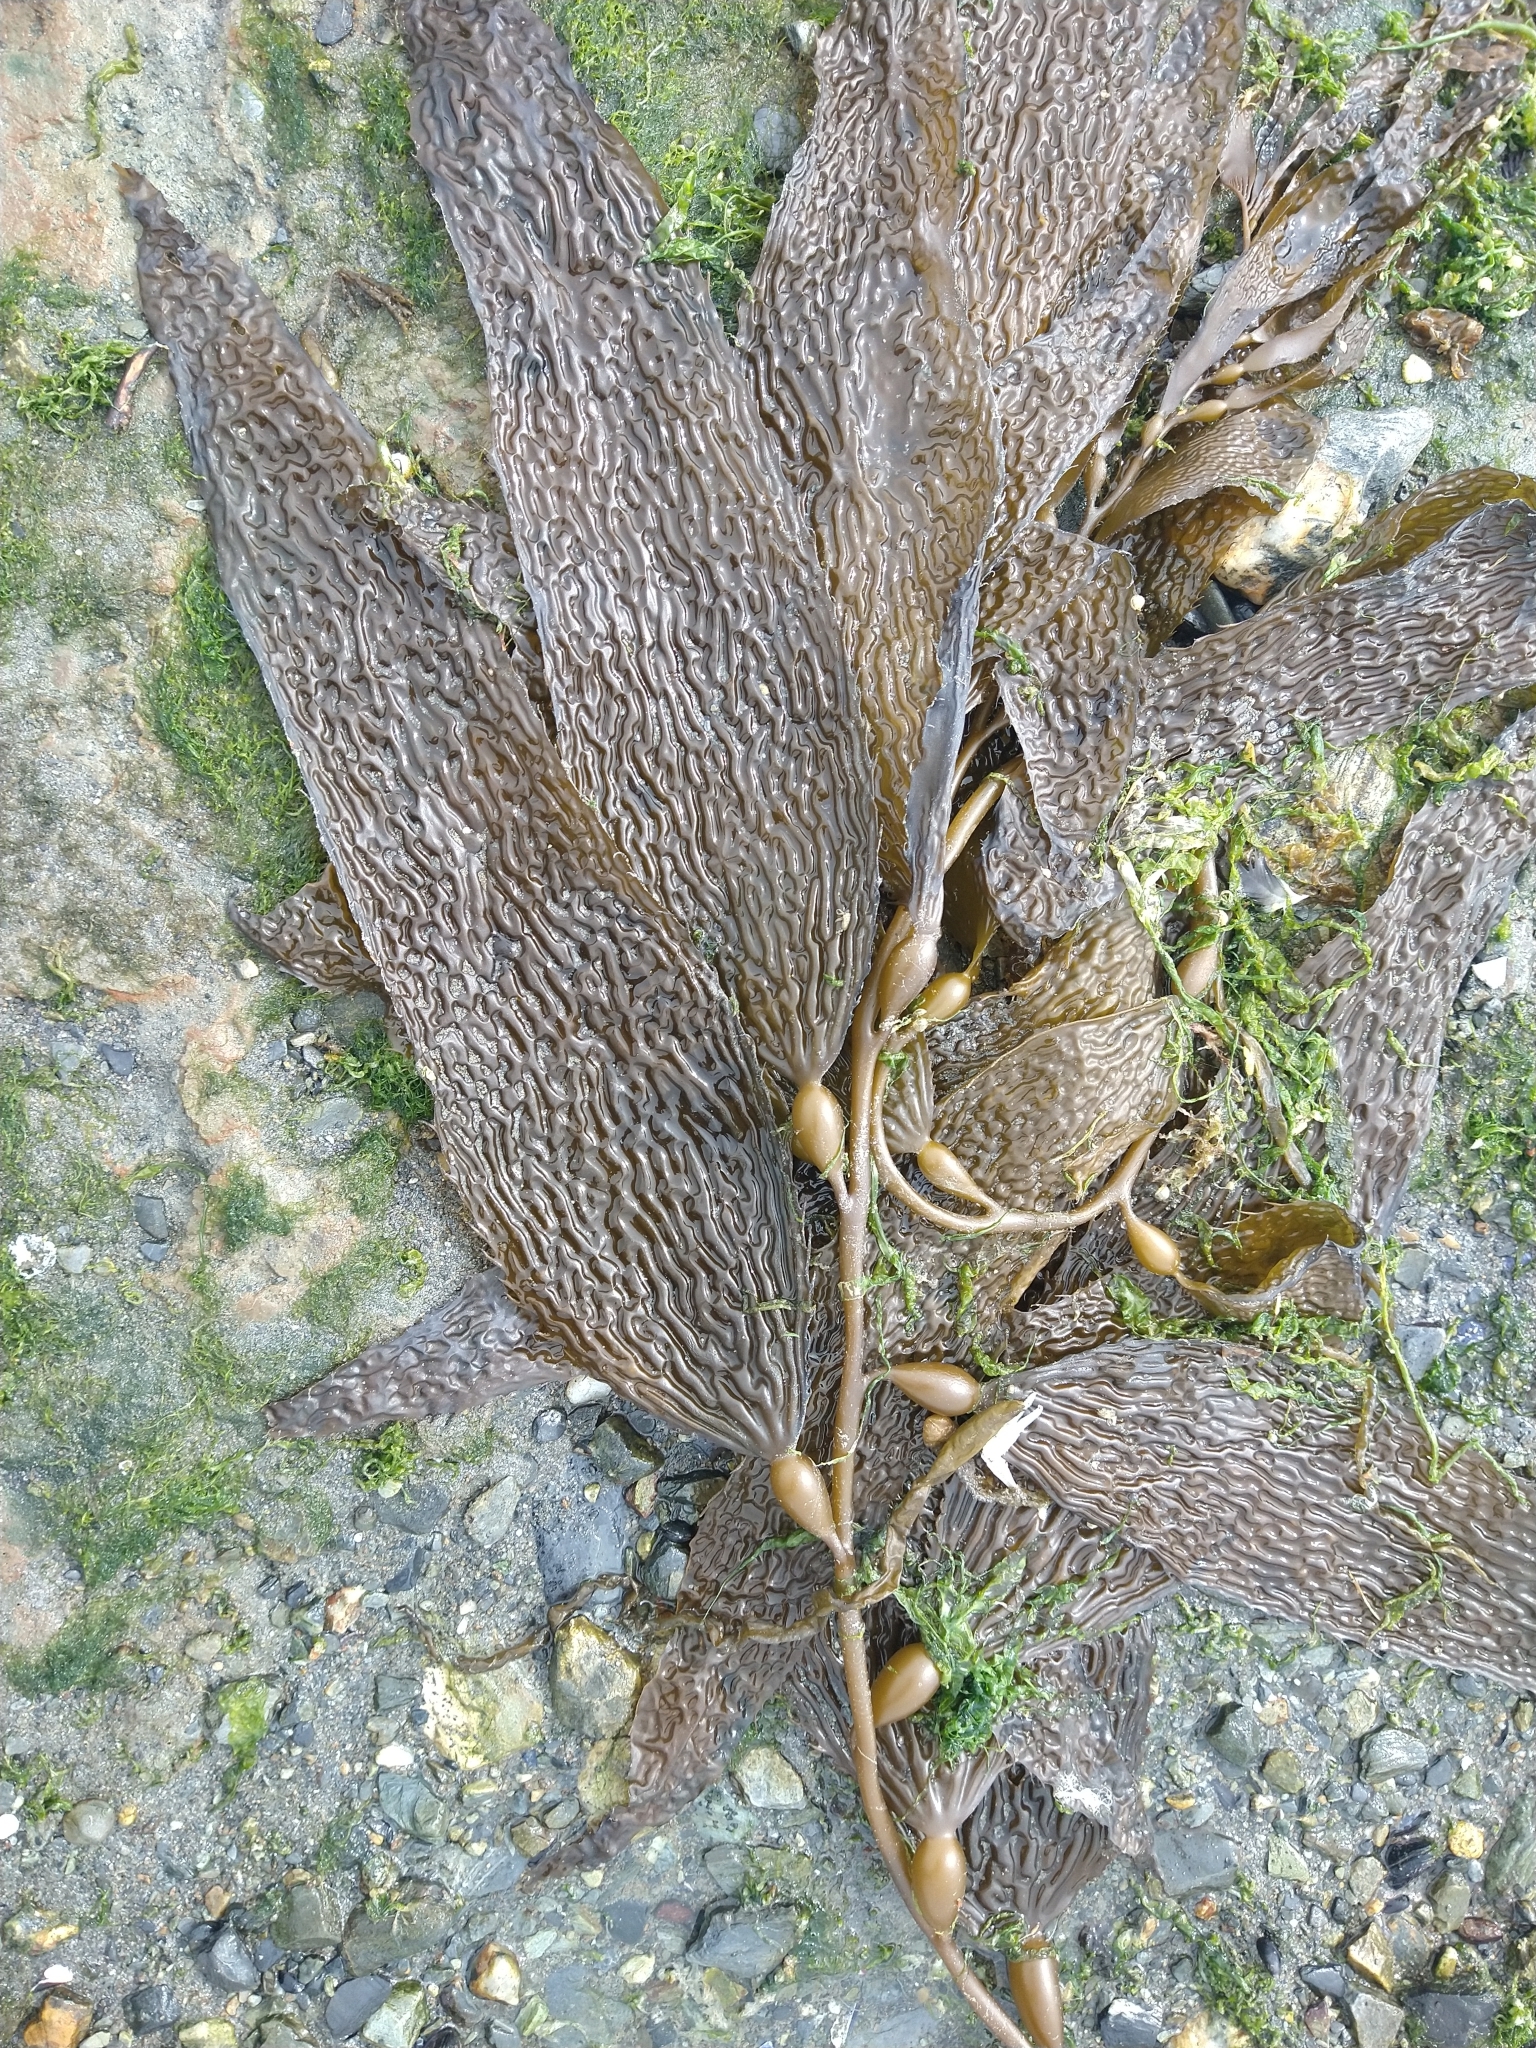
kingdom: Chromista
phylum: Ochrophyta
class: Phaeophyceae
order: Laminariales
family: Laminariaceae
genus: Macrocystis
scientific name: Macrocystis pyrifera
